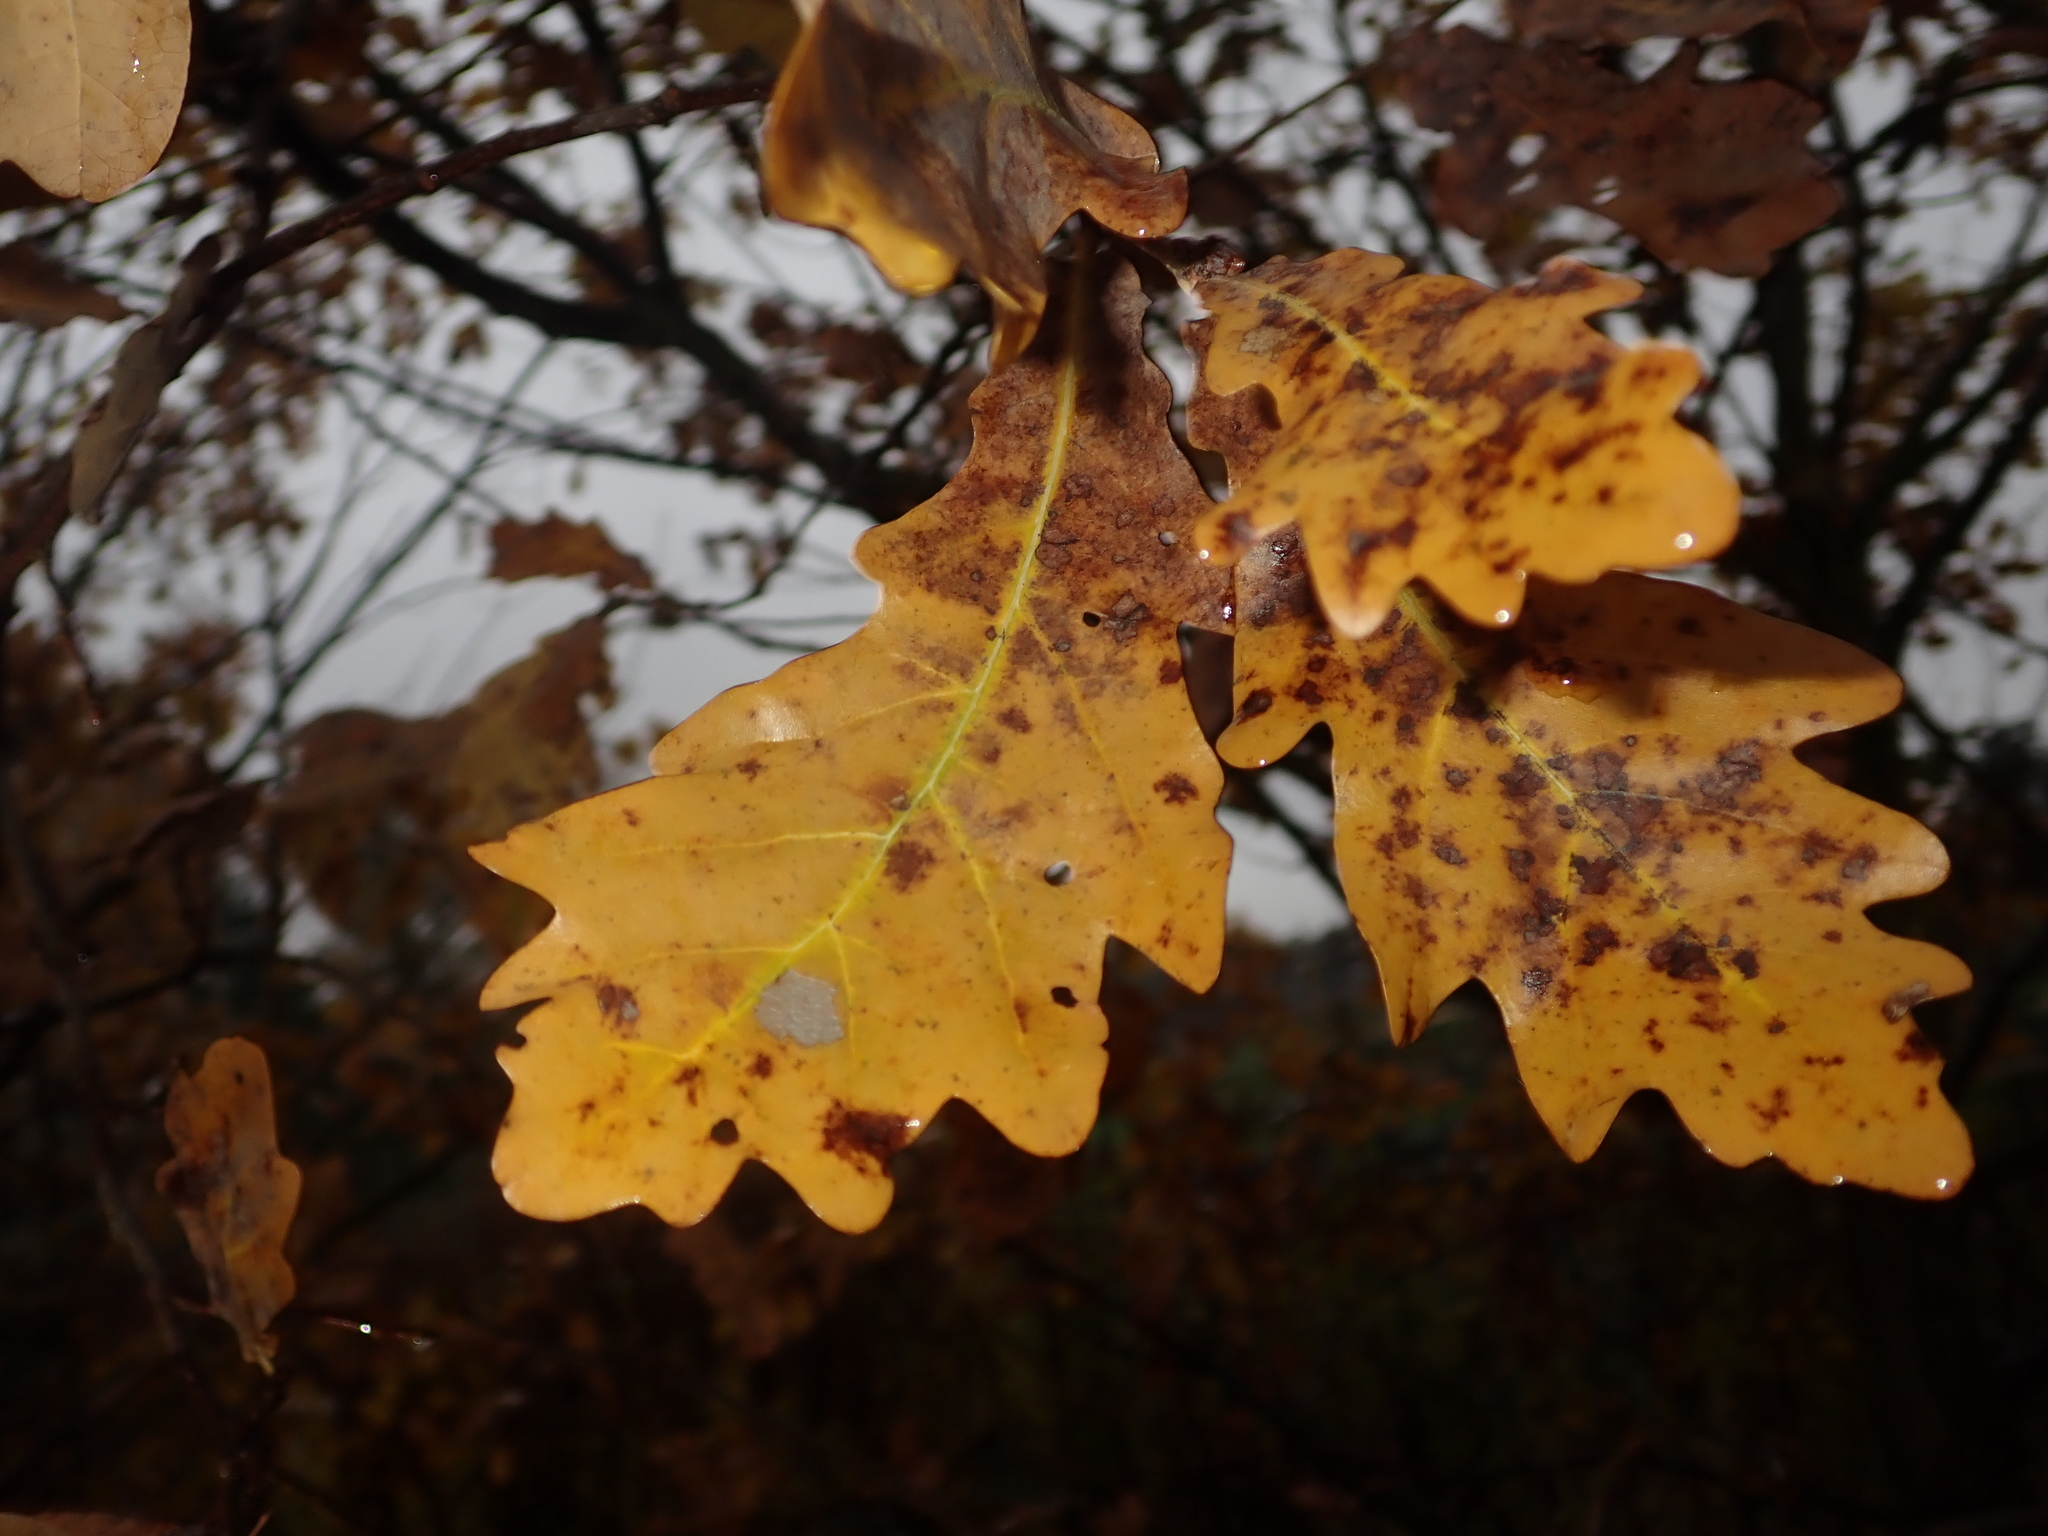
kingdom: Plantae
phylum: Tracheophyta
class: Magnoliopsida
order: Fagales
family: Fagaceae
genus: Quercus
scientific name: Quercus robur
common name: Pedunculate oak
